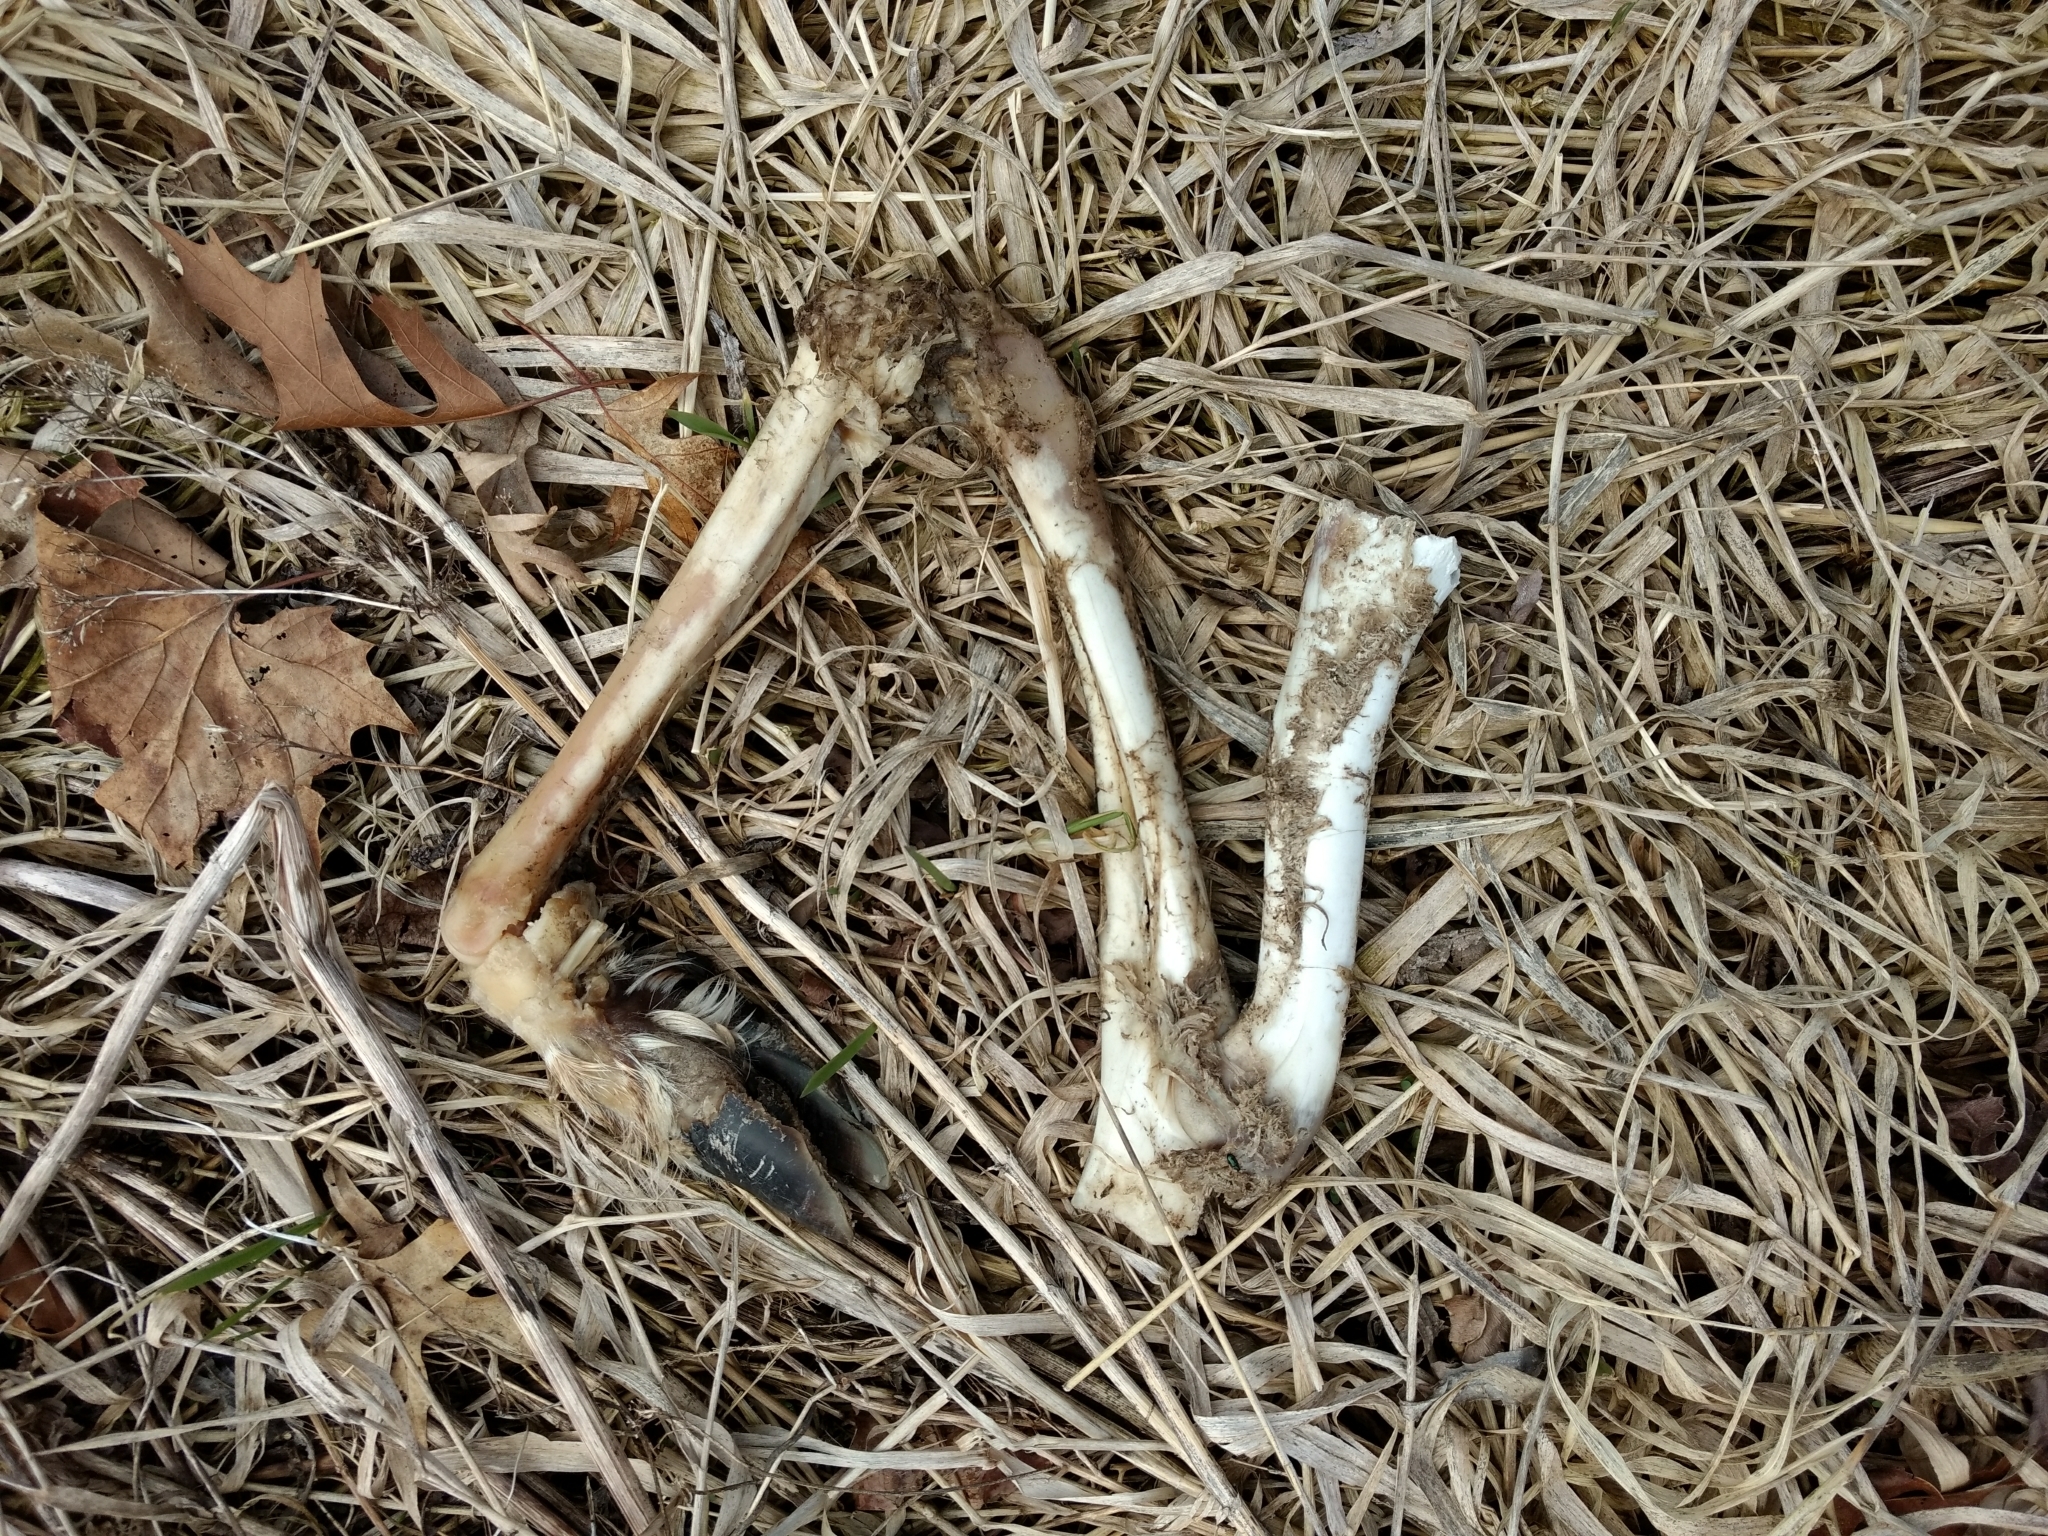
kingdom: Animalia
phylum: Chordata
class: Mammalia
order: Artiodactyla
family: Cervidae
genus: Odocoileus
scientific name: Odocoileus virginianus
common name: White-tailed deer
